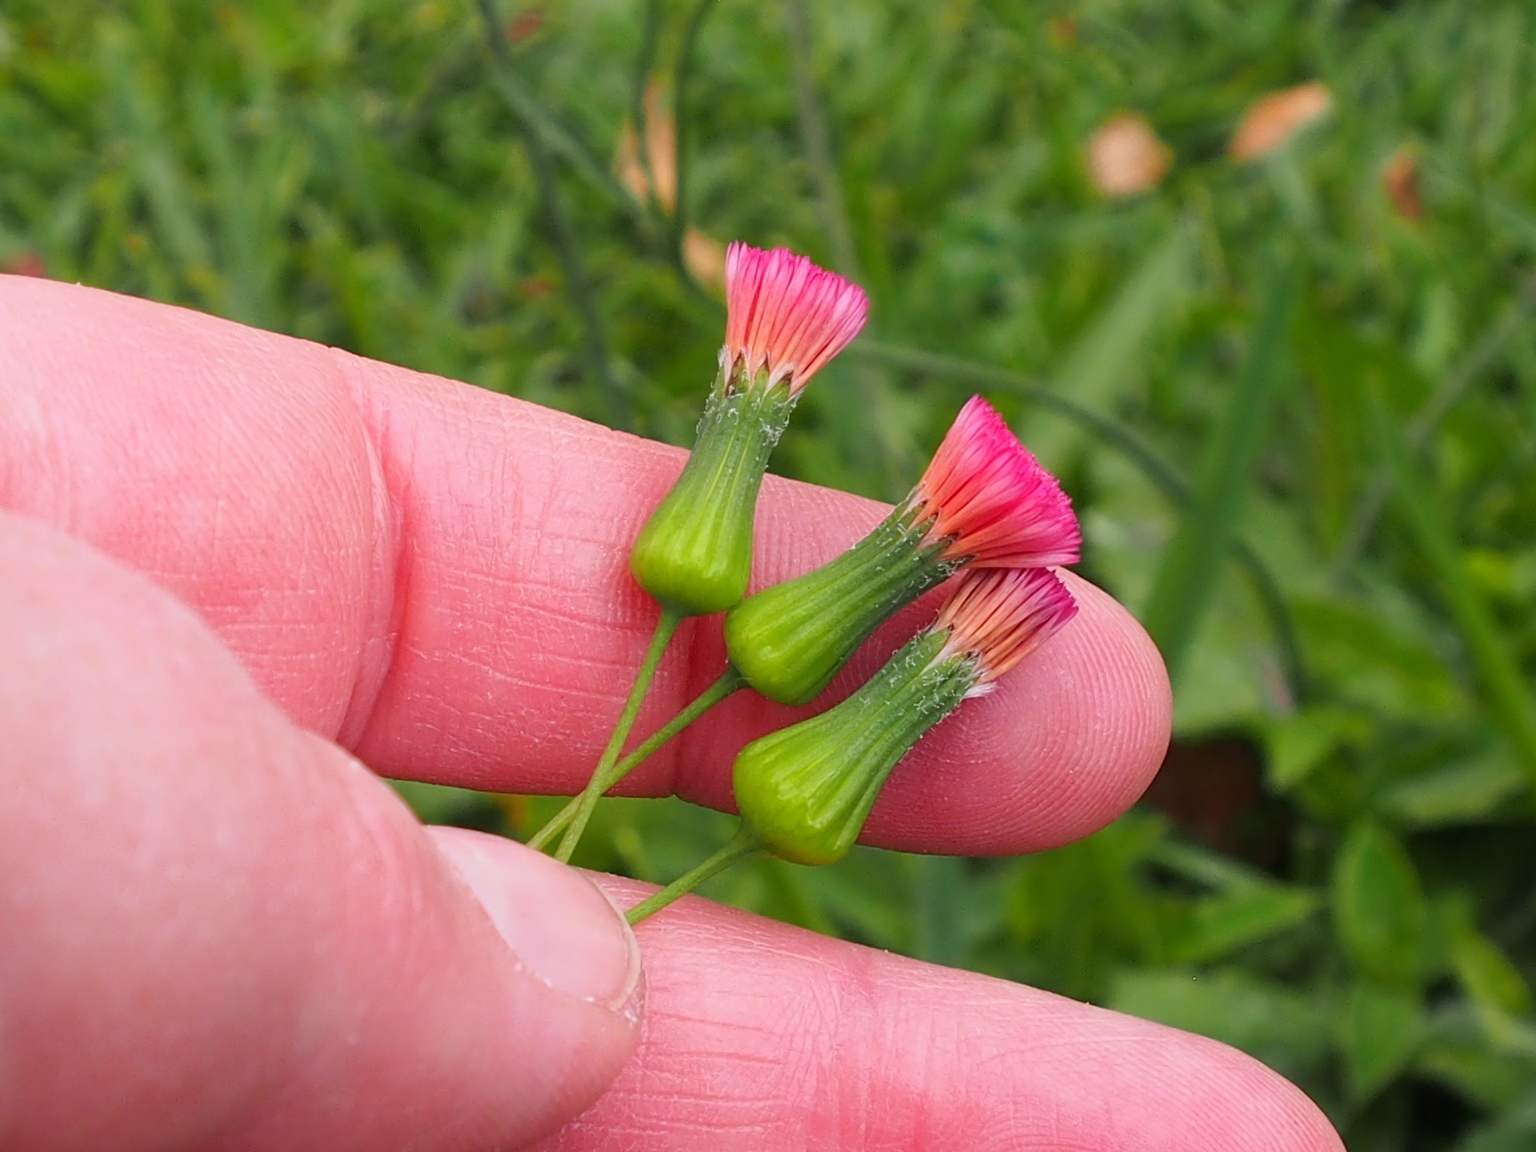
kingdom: Plantae
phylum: Tracheophyta
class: Magnoliopsida
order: Asterales
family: Asteraceae
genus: Emilia
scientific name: Emilia fosbergii
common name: Florida tasselflower
